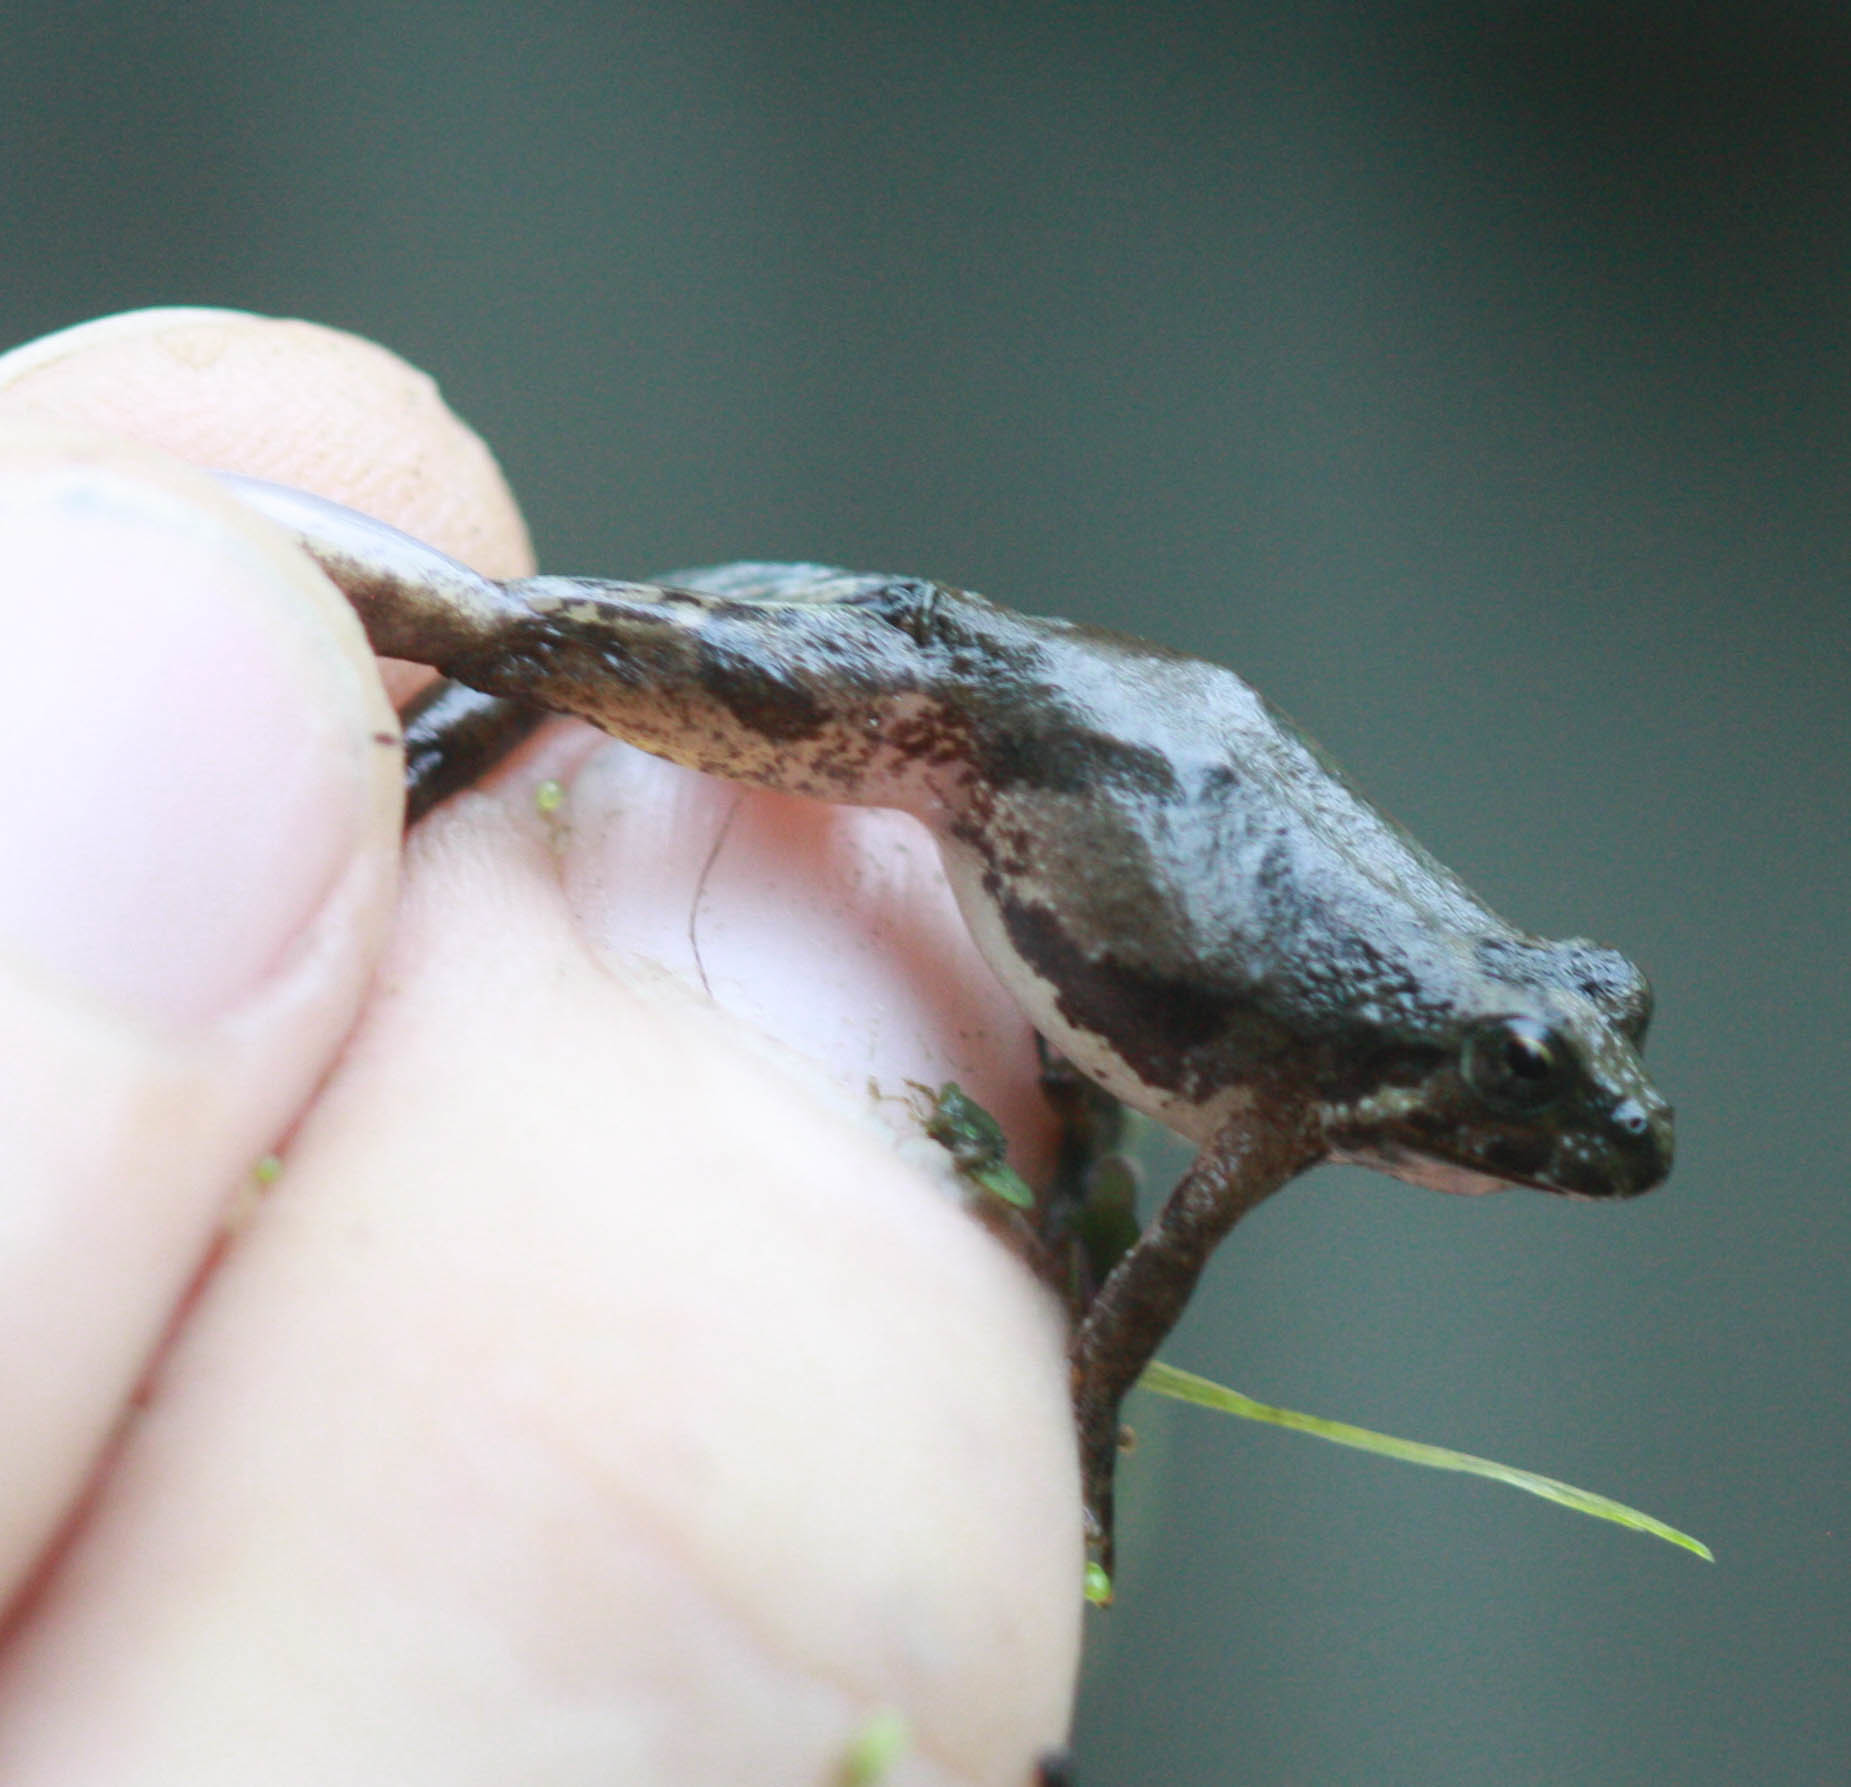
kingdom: Animalia
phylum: Chordata
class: Amphibia
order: Anura
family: Hylidae
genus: Acris
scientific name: Acris blanchardi
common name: Blanchard's cricket frog
